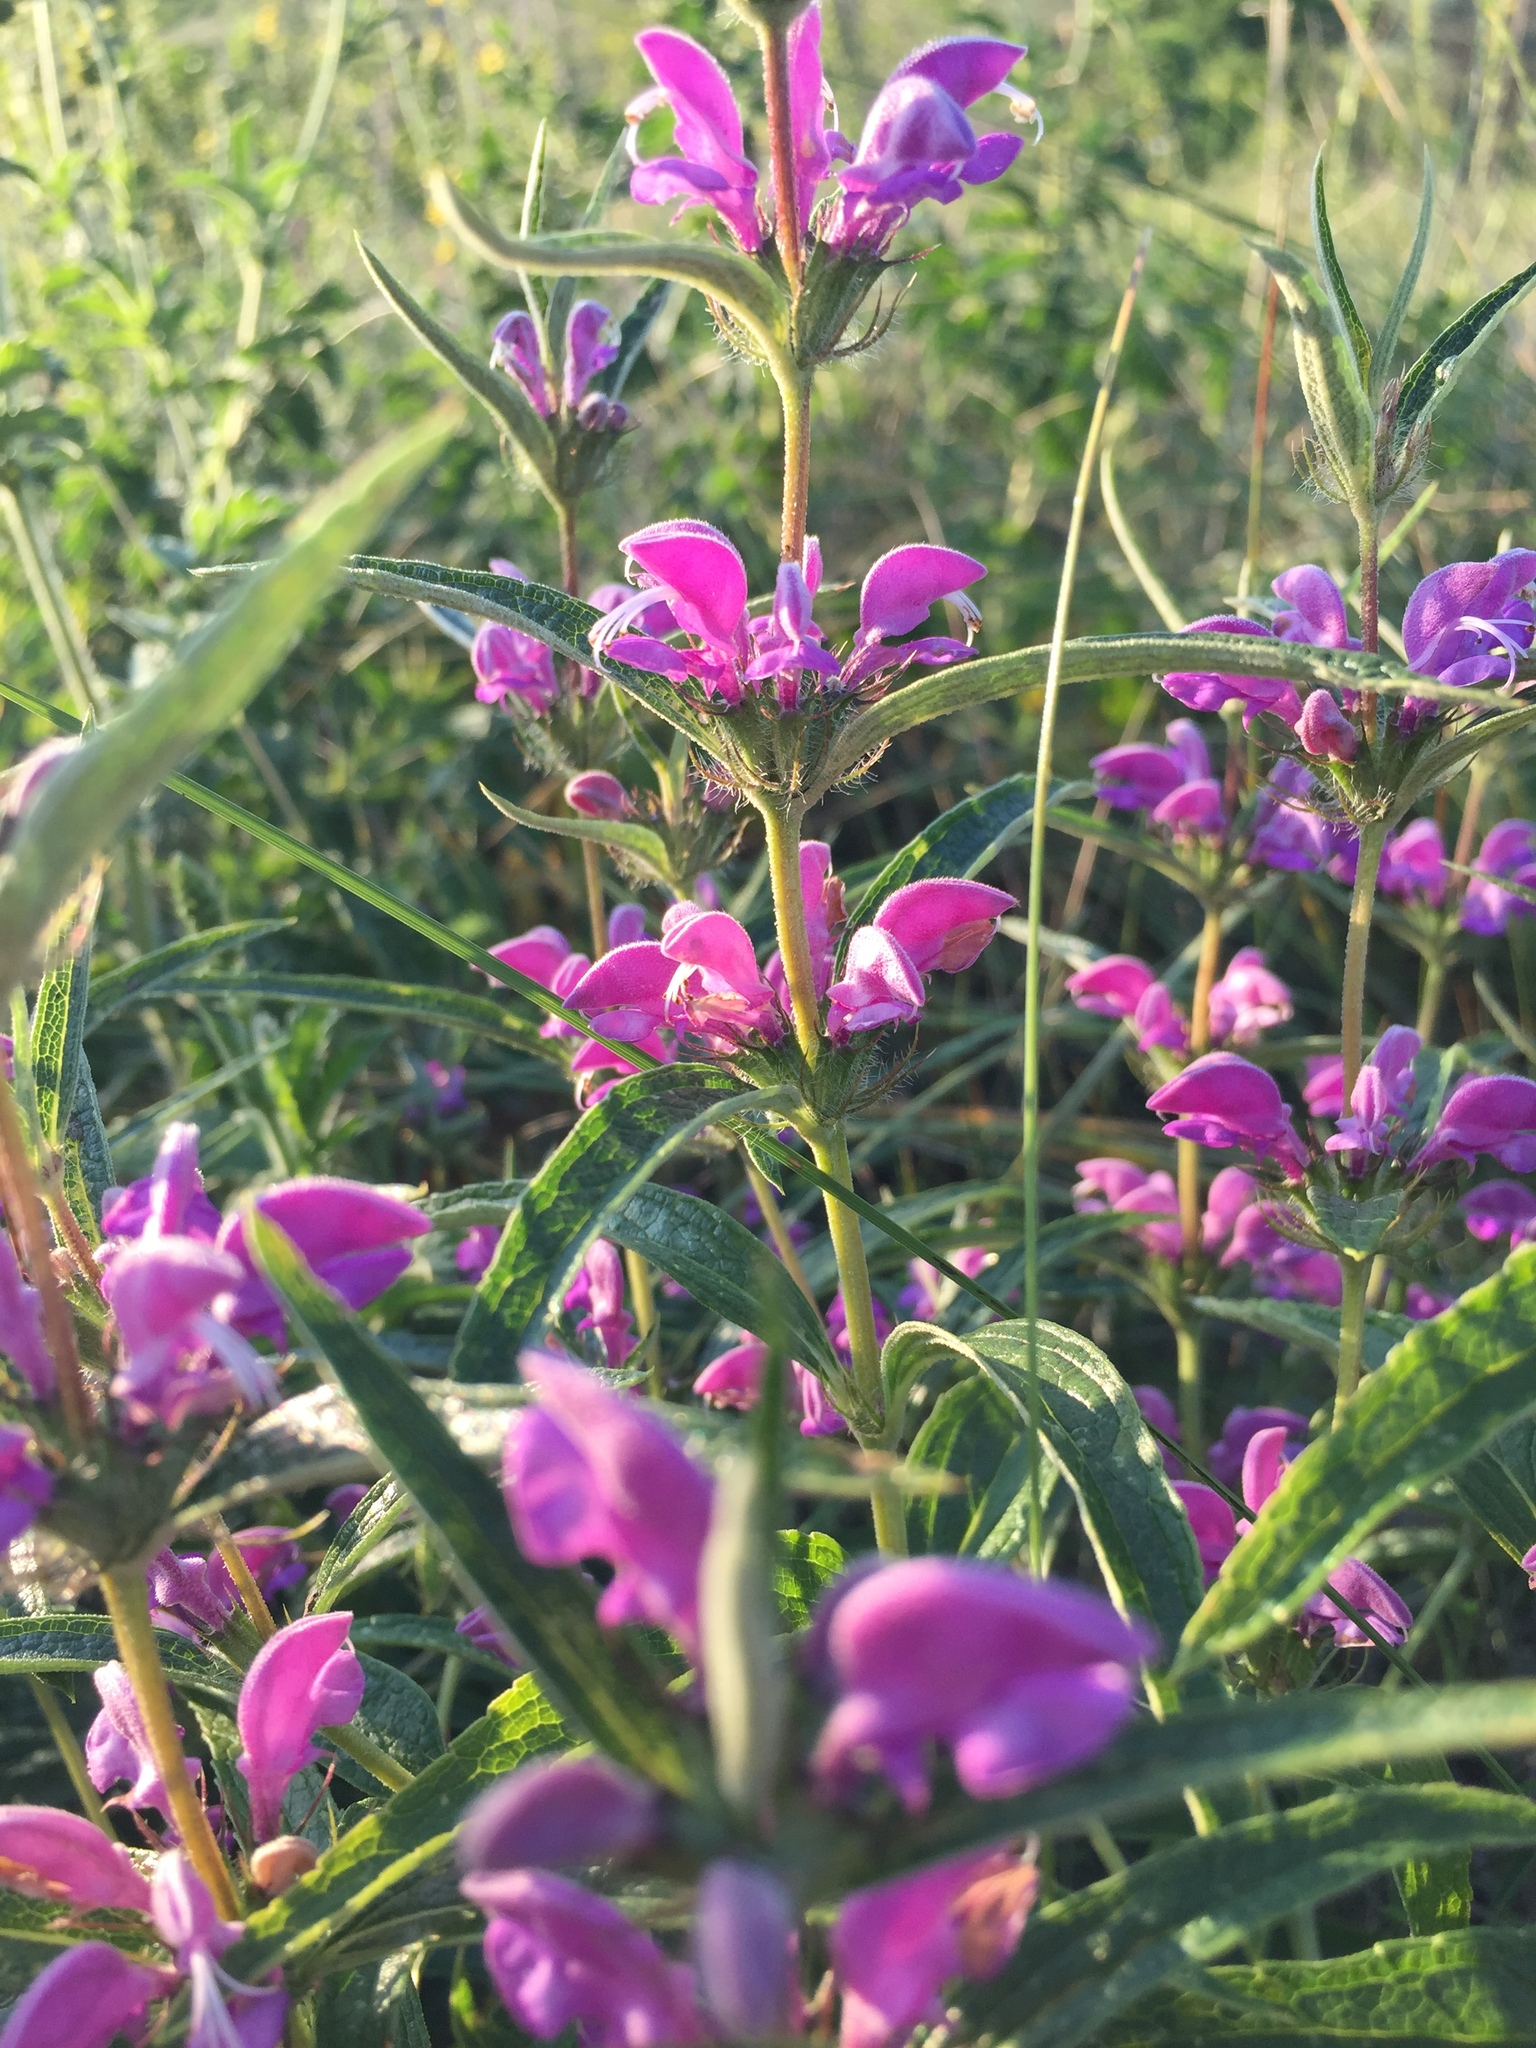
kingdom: Plantae
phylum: Tracheophyta
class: Magnoliopsida
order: Lamiales
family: Lamiaceae
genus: Phlomis
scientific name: Phlomis herba-venti
